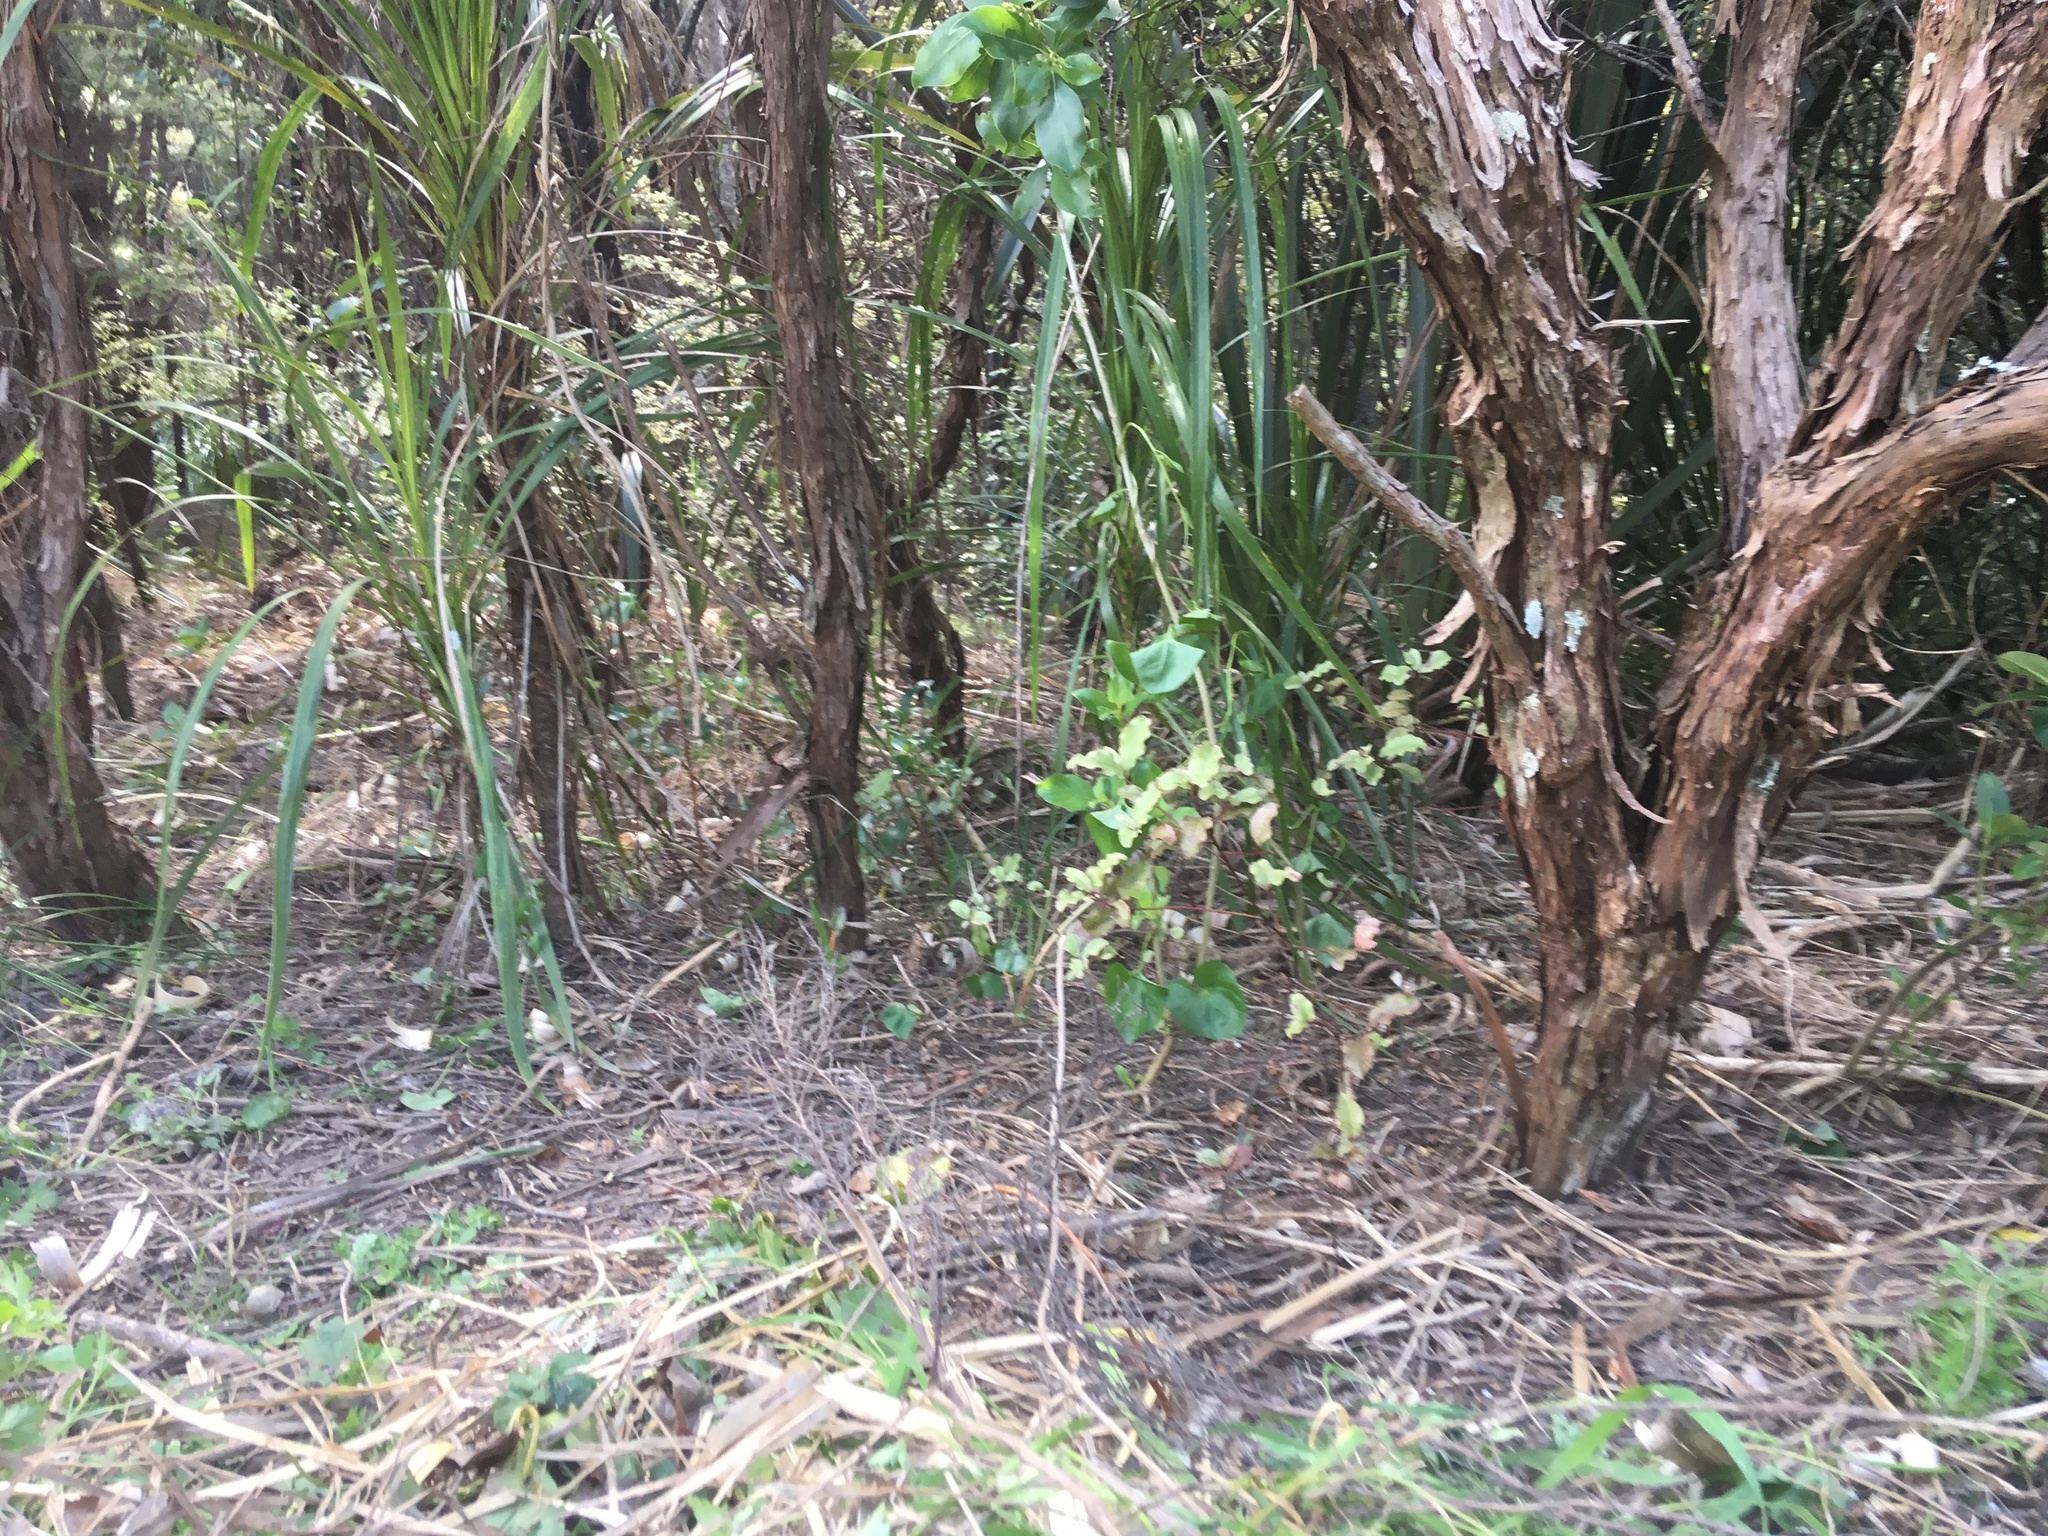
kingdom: Plantae
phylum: Tracheophyta
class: Magnoliopsida
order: Ericales
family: Primulaceae
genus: Myrsine
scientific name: Myrsine australis
